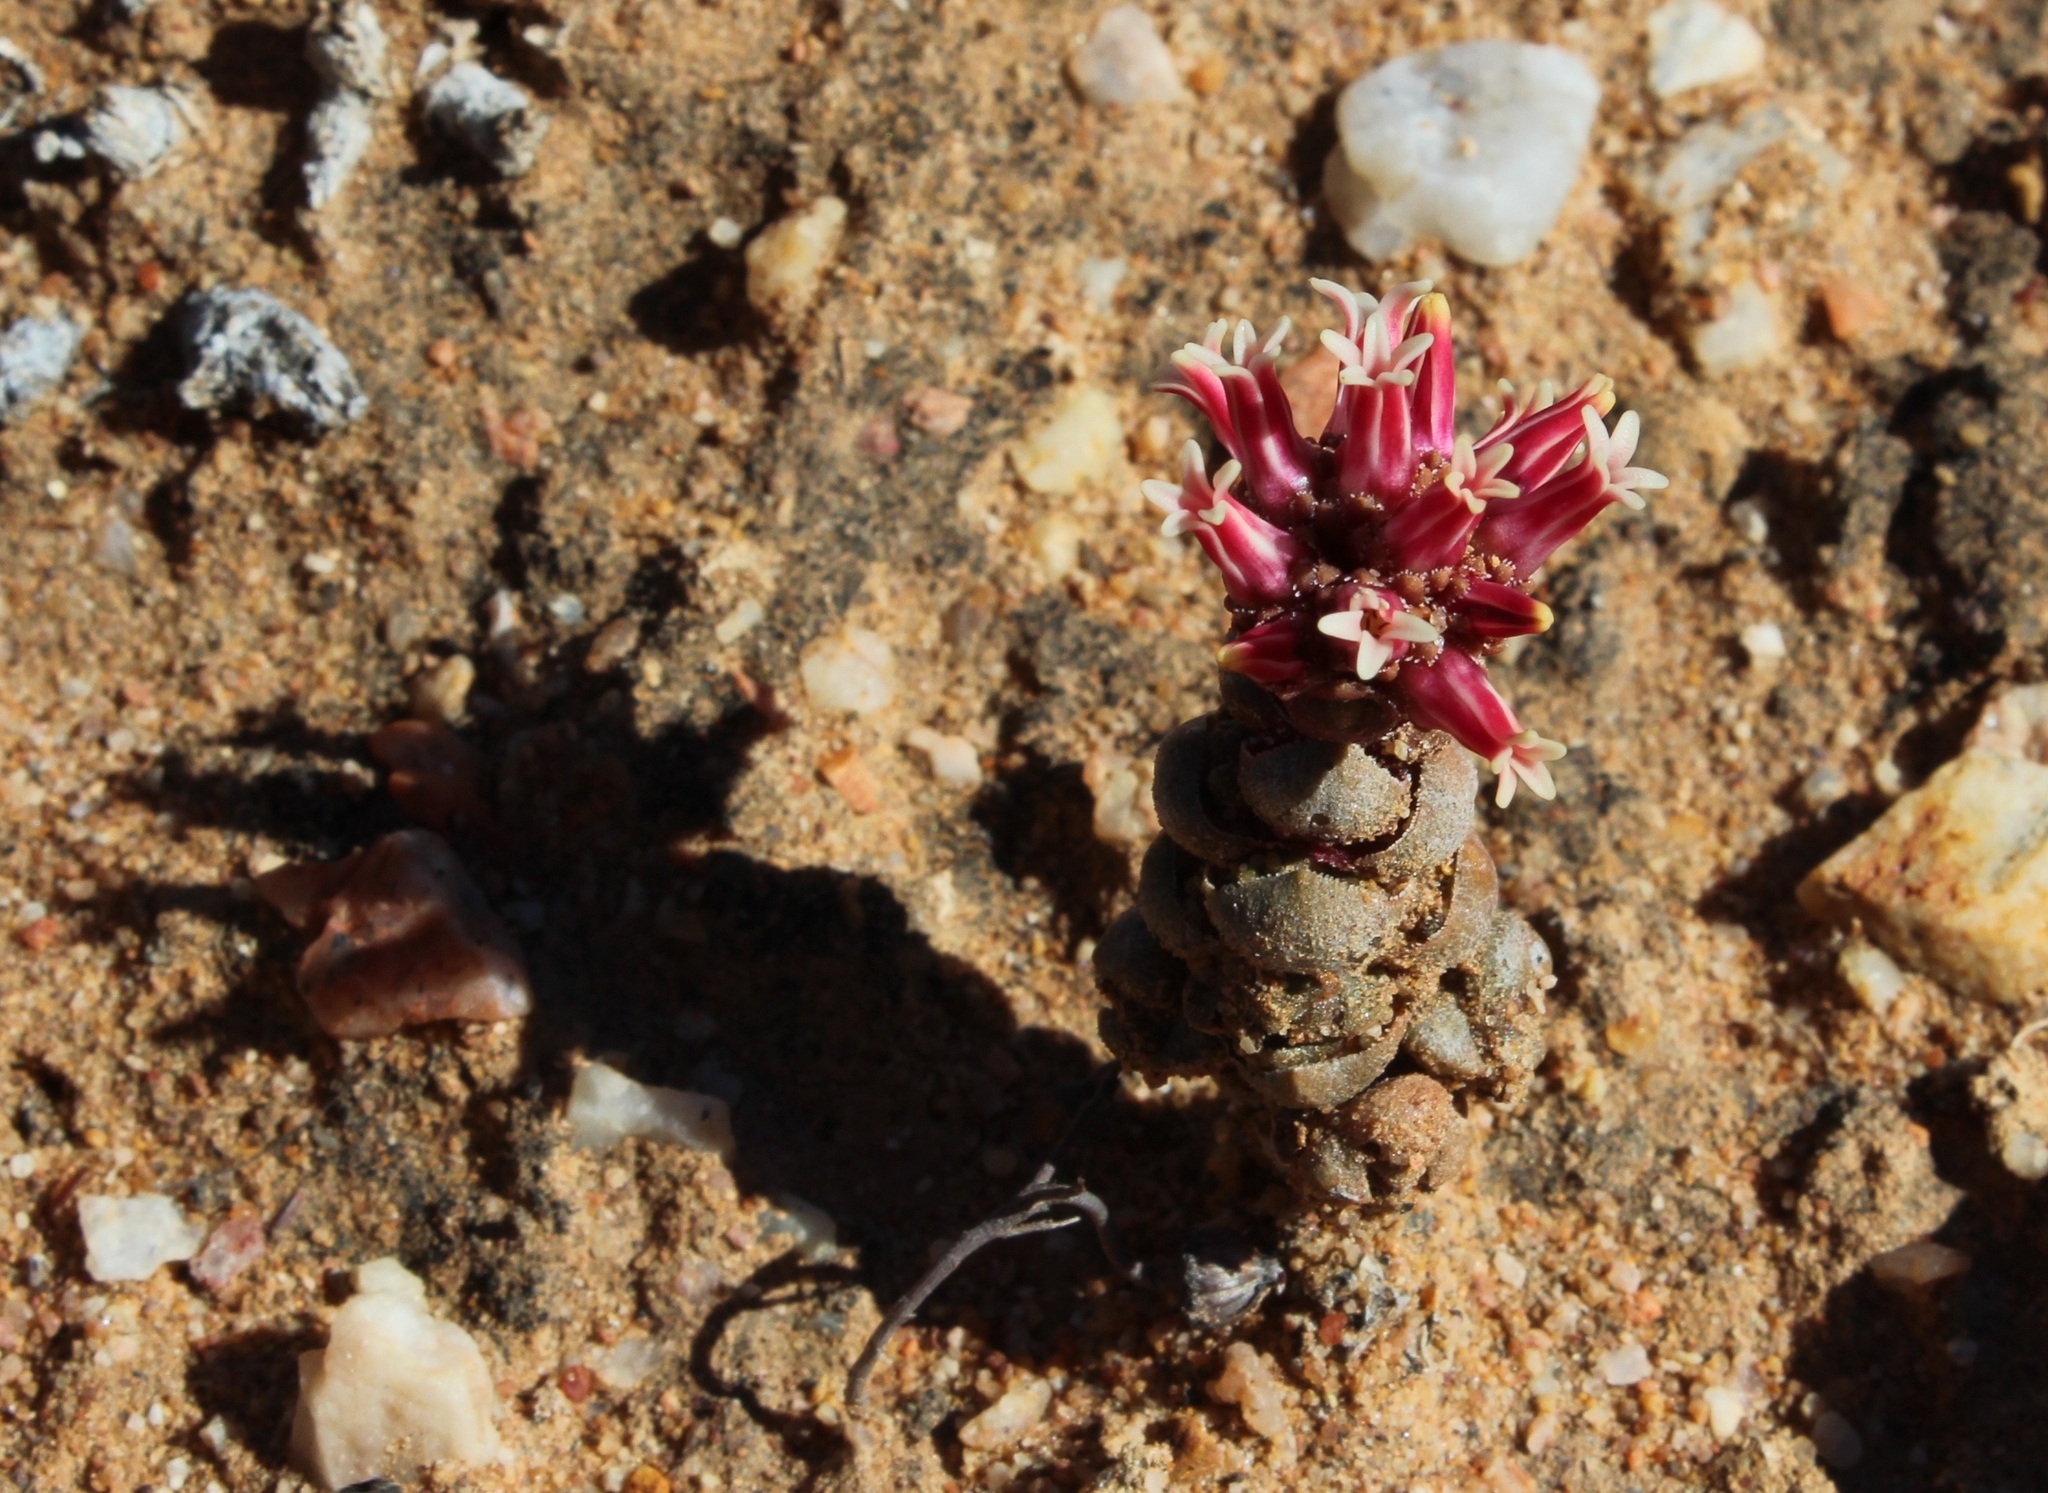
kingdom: Plantae
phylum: Tracheophyta
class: Magnoliopsida
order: Saxifragales
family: Crassulaceae
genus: Crassula
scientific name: Crassula columnaris
